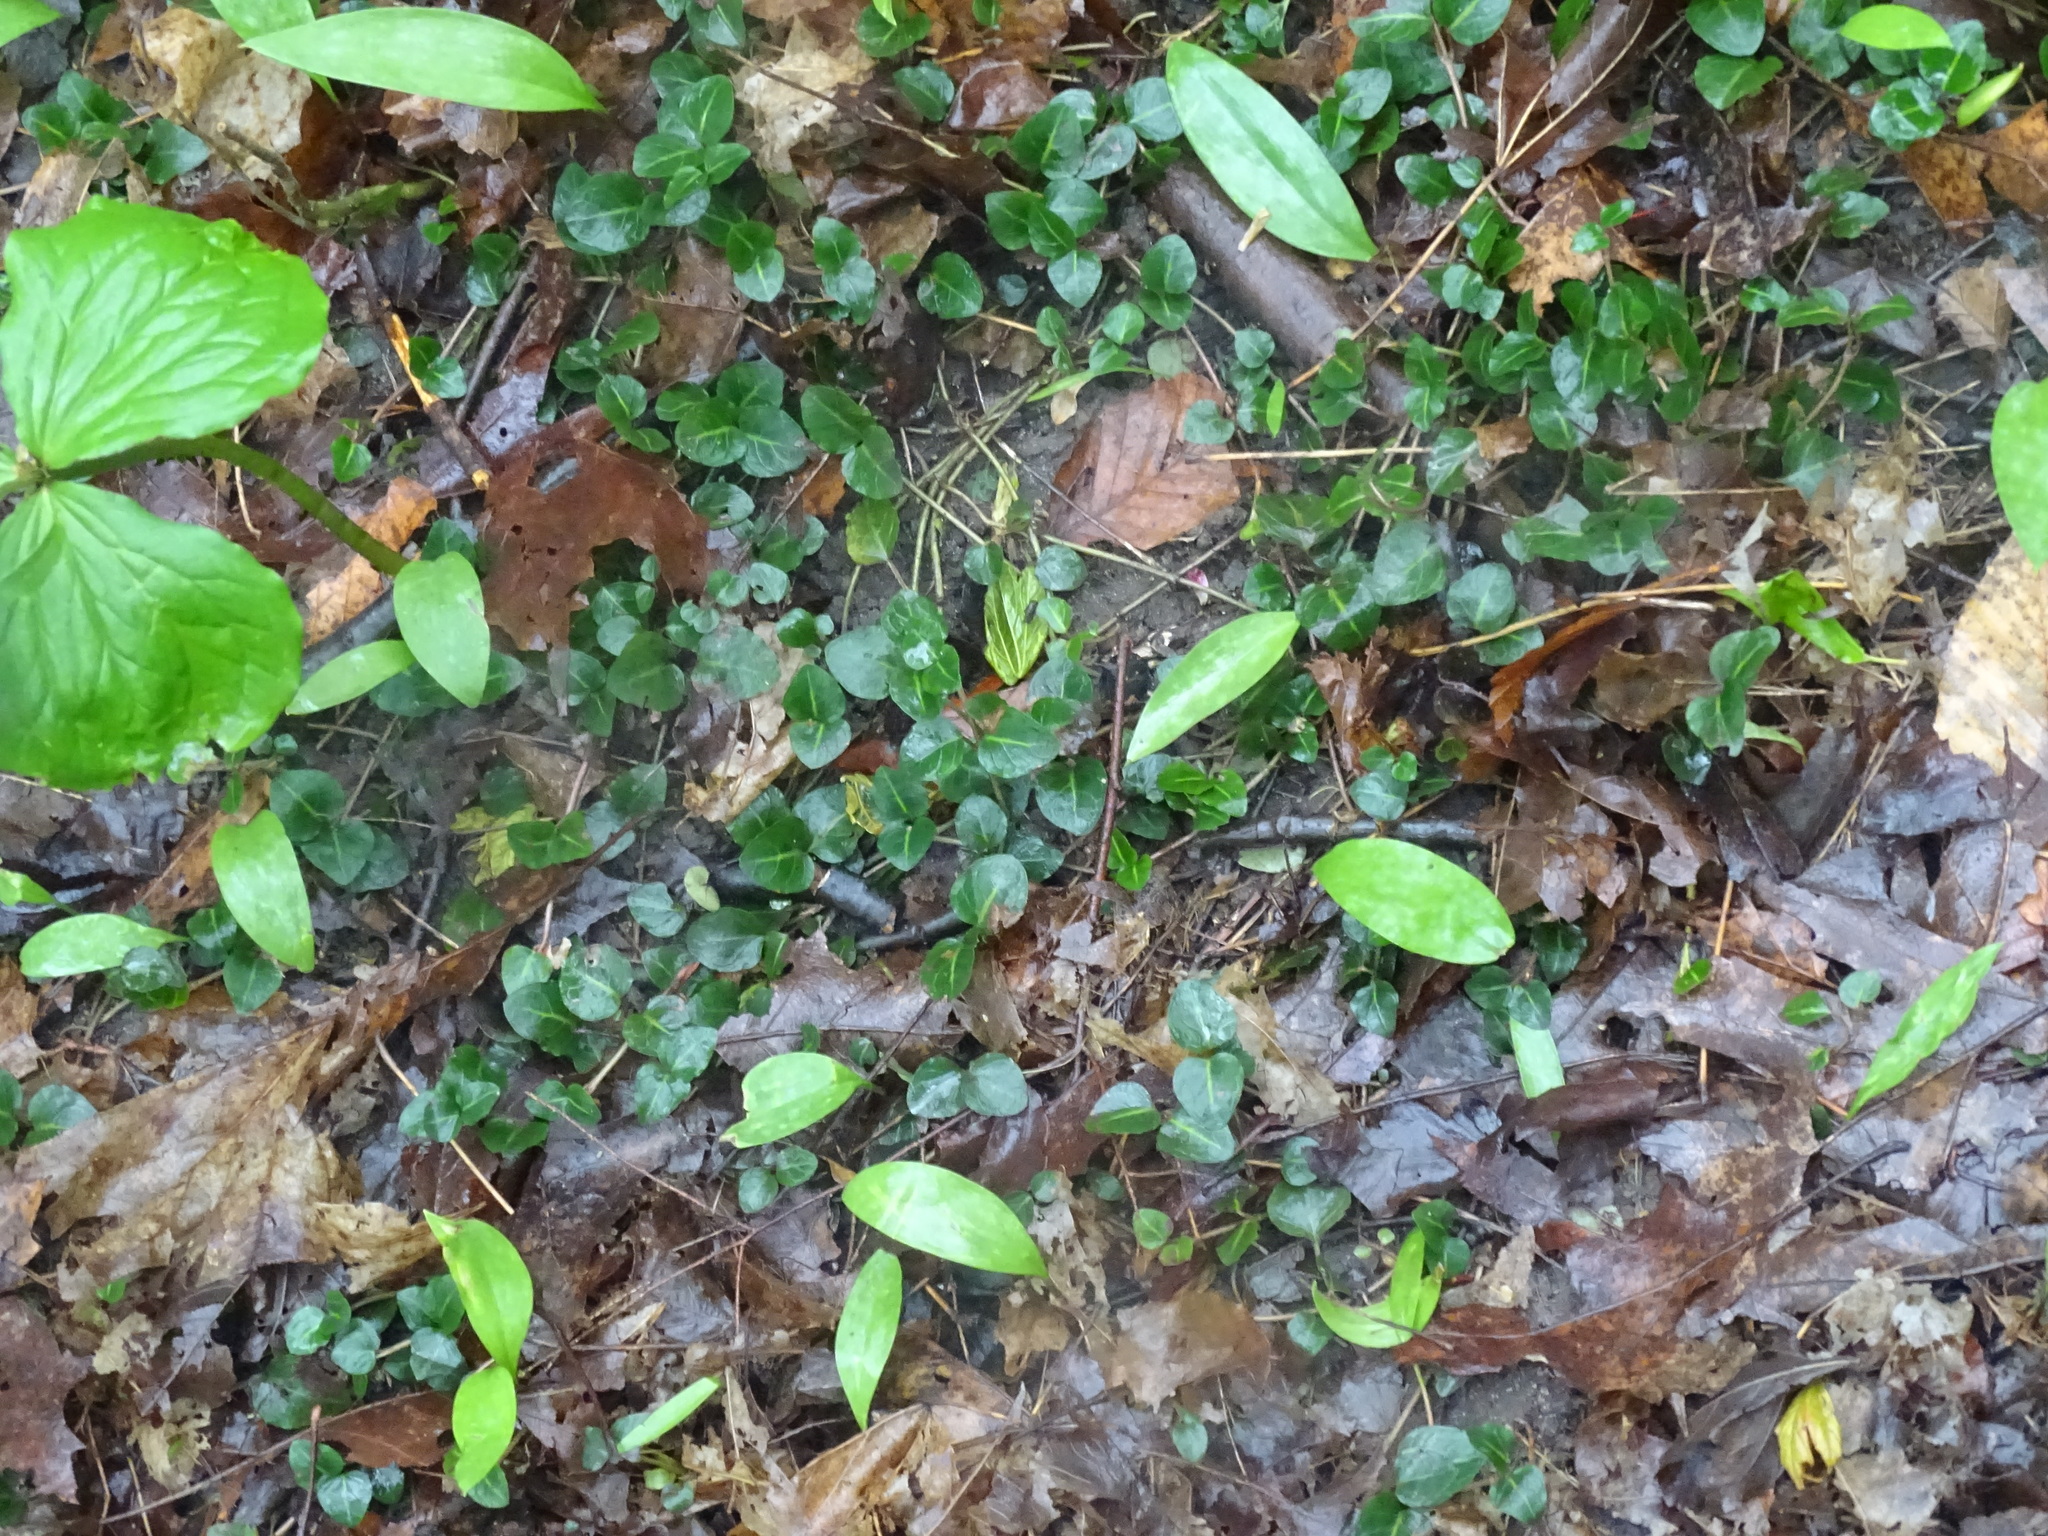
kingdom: Plantae
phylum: Tracheophyta
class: Magnoliopsida
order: Gentianales
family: Rubiaceae
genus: Mitchella
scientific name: Mitchella repens
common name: Partridge-berry
